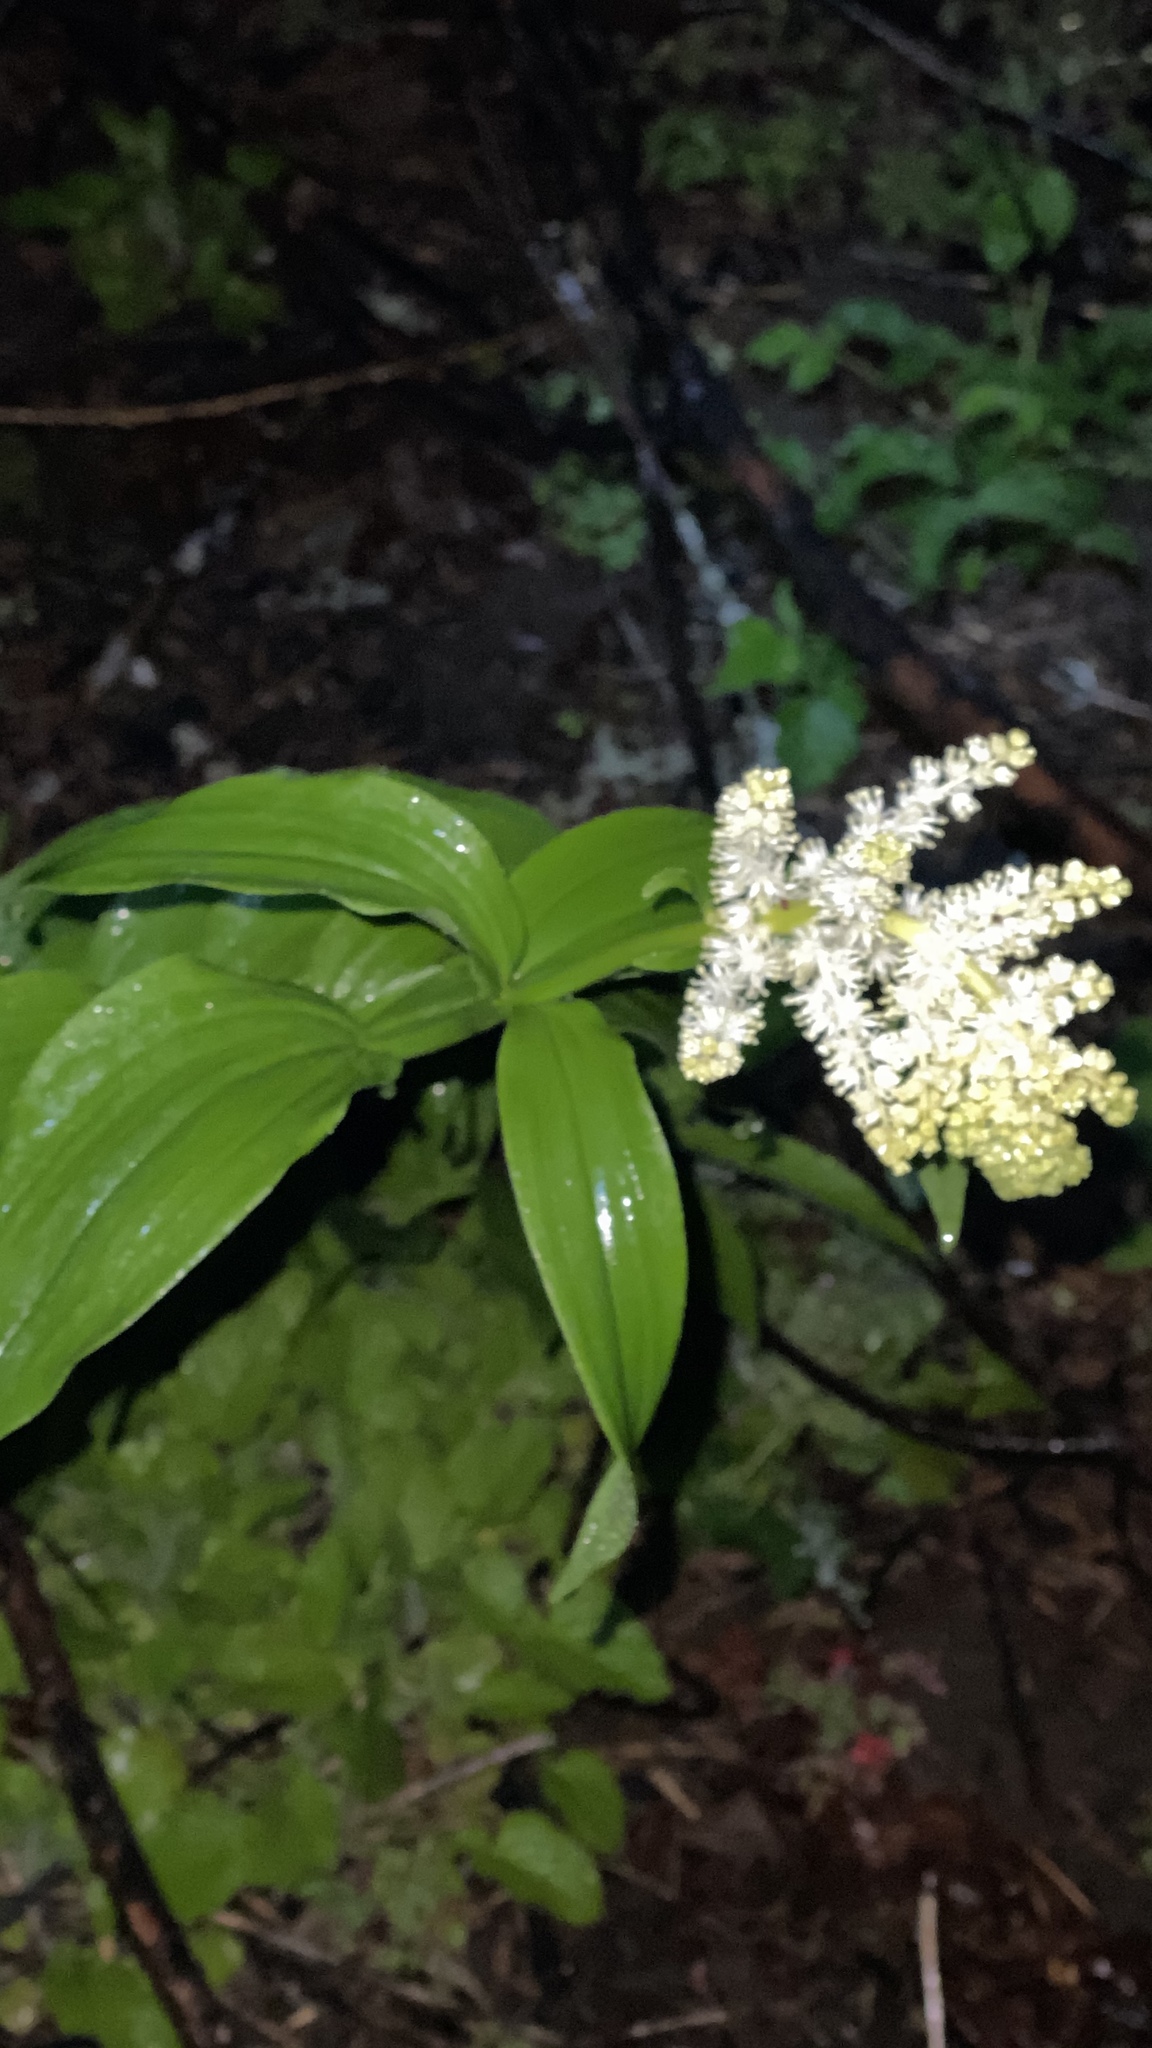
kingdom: Plantae
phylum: Tracheophyta
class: Liliopsida
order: Asparagales
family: Asparagaceae
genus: Maianthemum
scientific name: Maianthemum racemosum
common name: False spikenard
